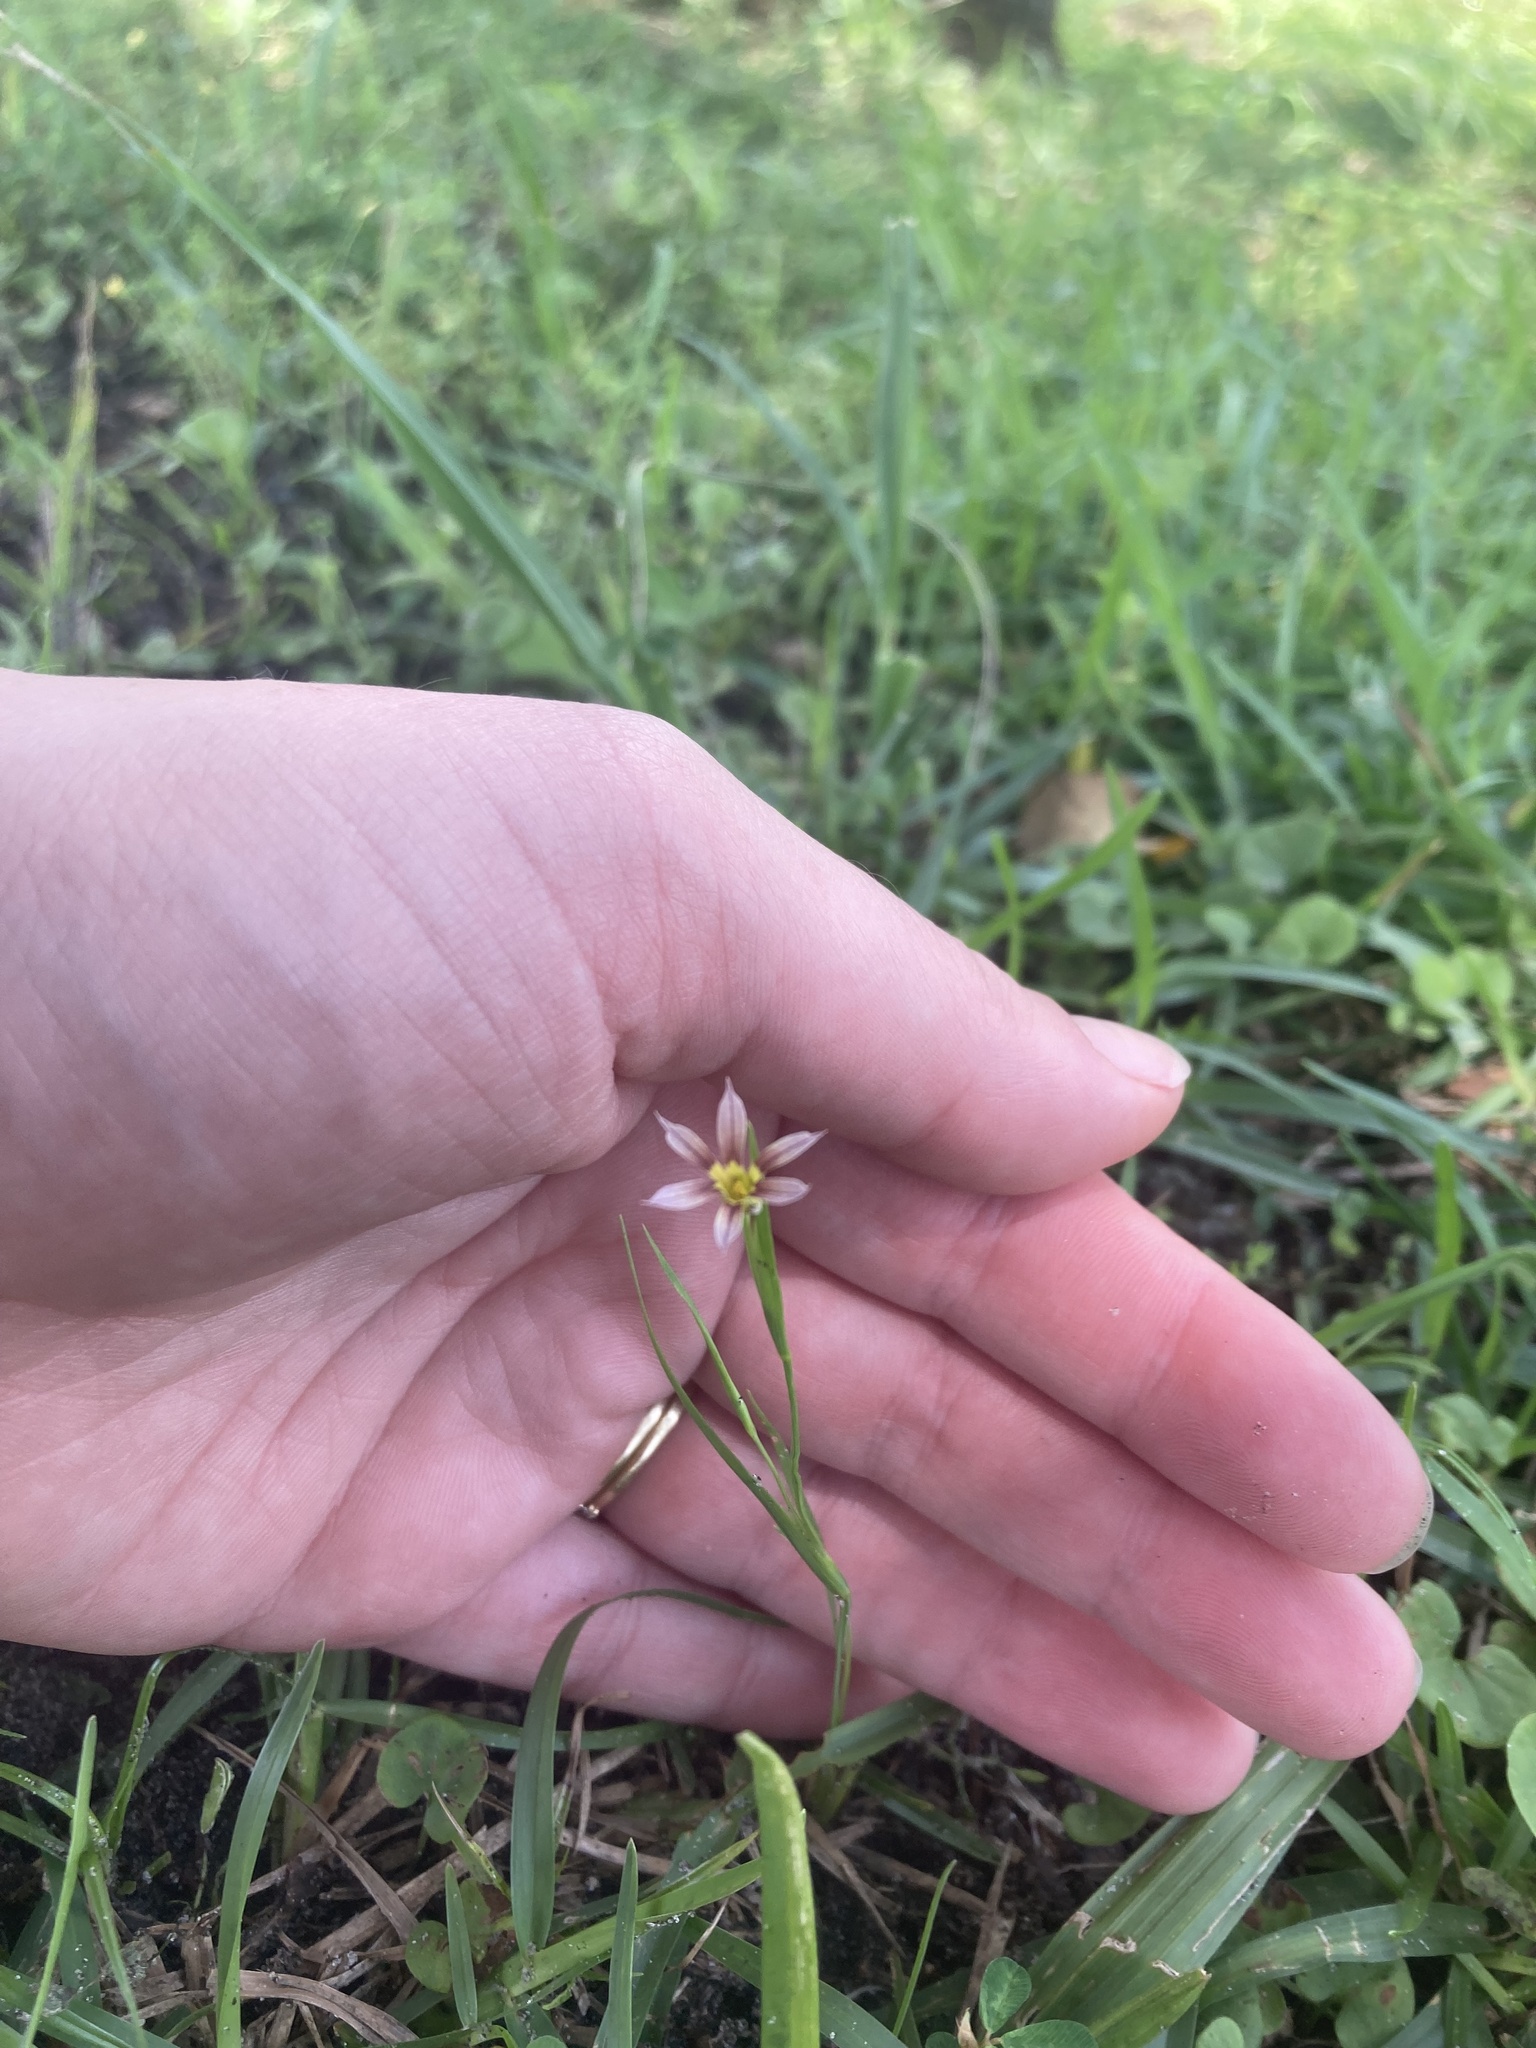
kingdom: Plantae
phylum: Tracheophyta
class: Liliopsida
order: Asparagales
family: Iridaceae
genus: Sisyrinchium
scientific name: Sisyrinchium micranthum
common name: Bermuda pigroot
